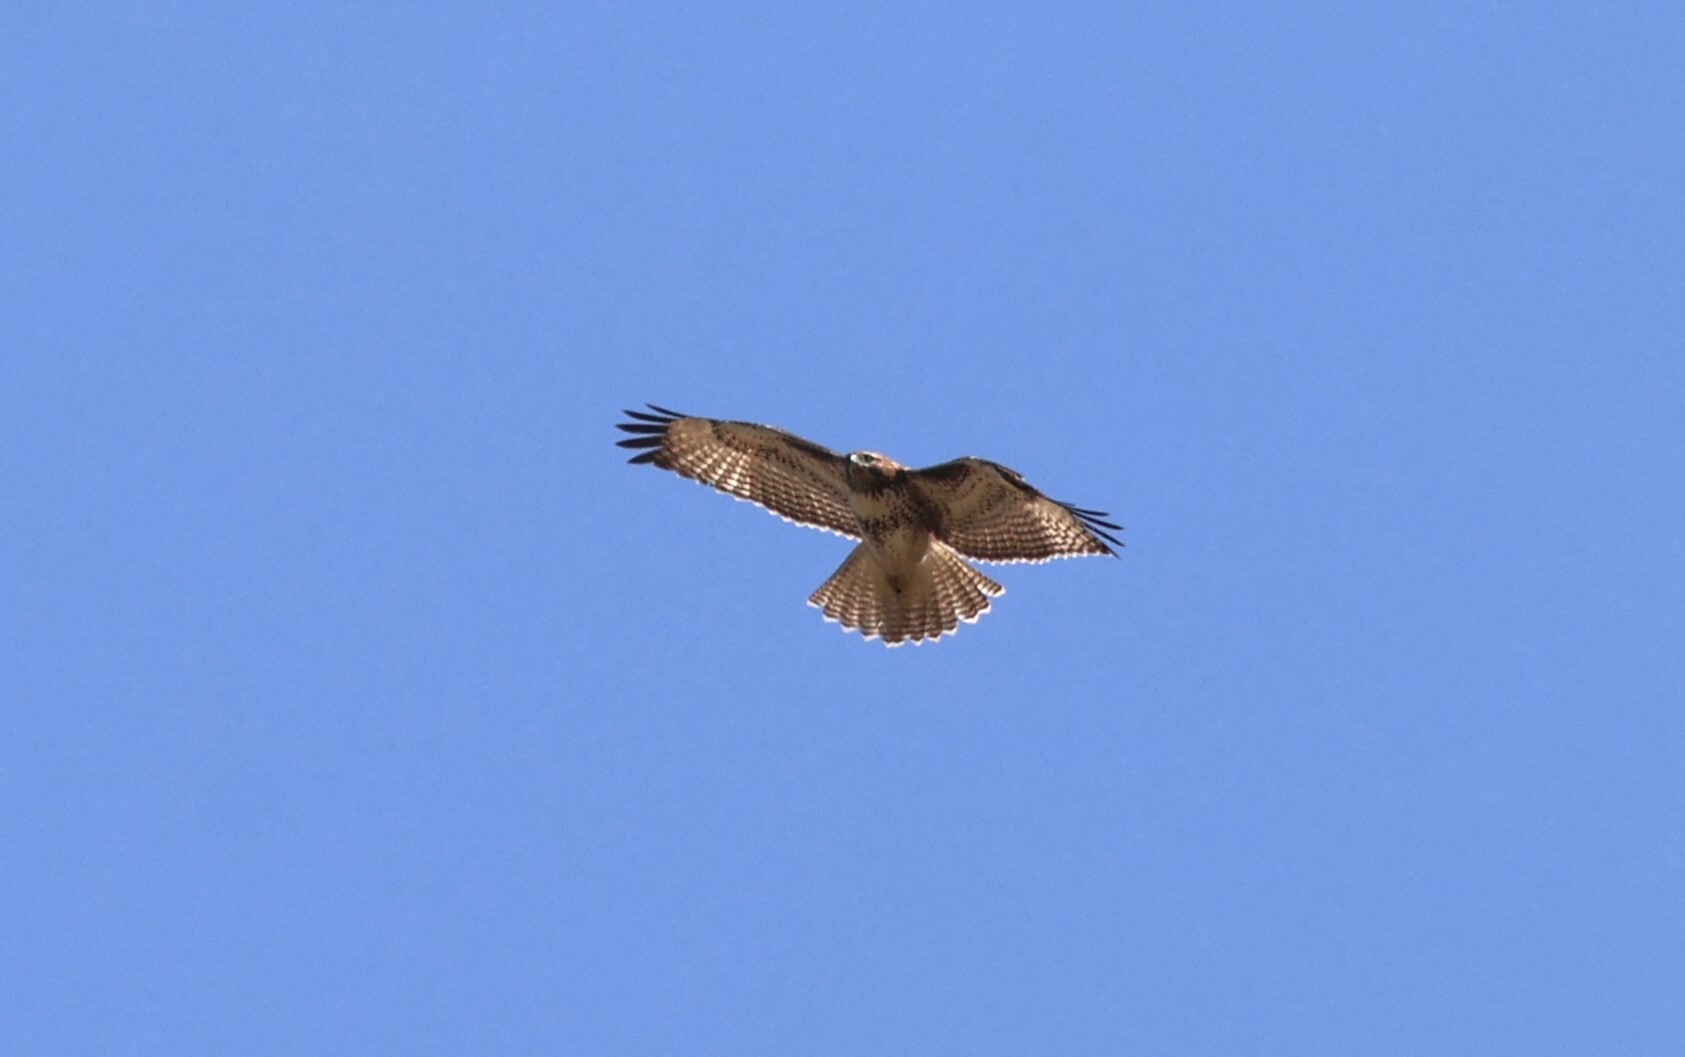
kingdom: Animalia
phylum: Chordata
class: Aves
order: Accipitriformes
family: Accipitridae
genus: Buteo
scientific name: Buteo jamaicensis
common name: Red-tailed hawk
